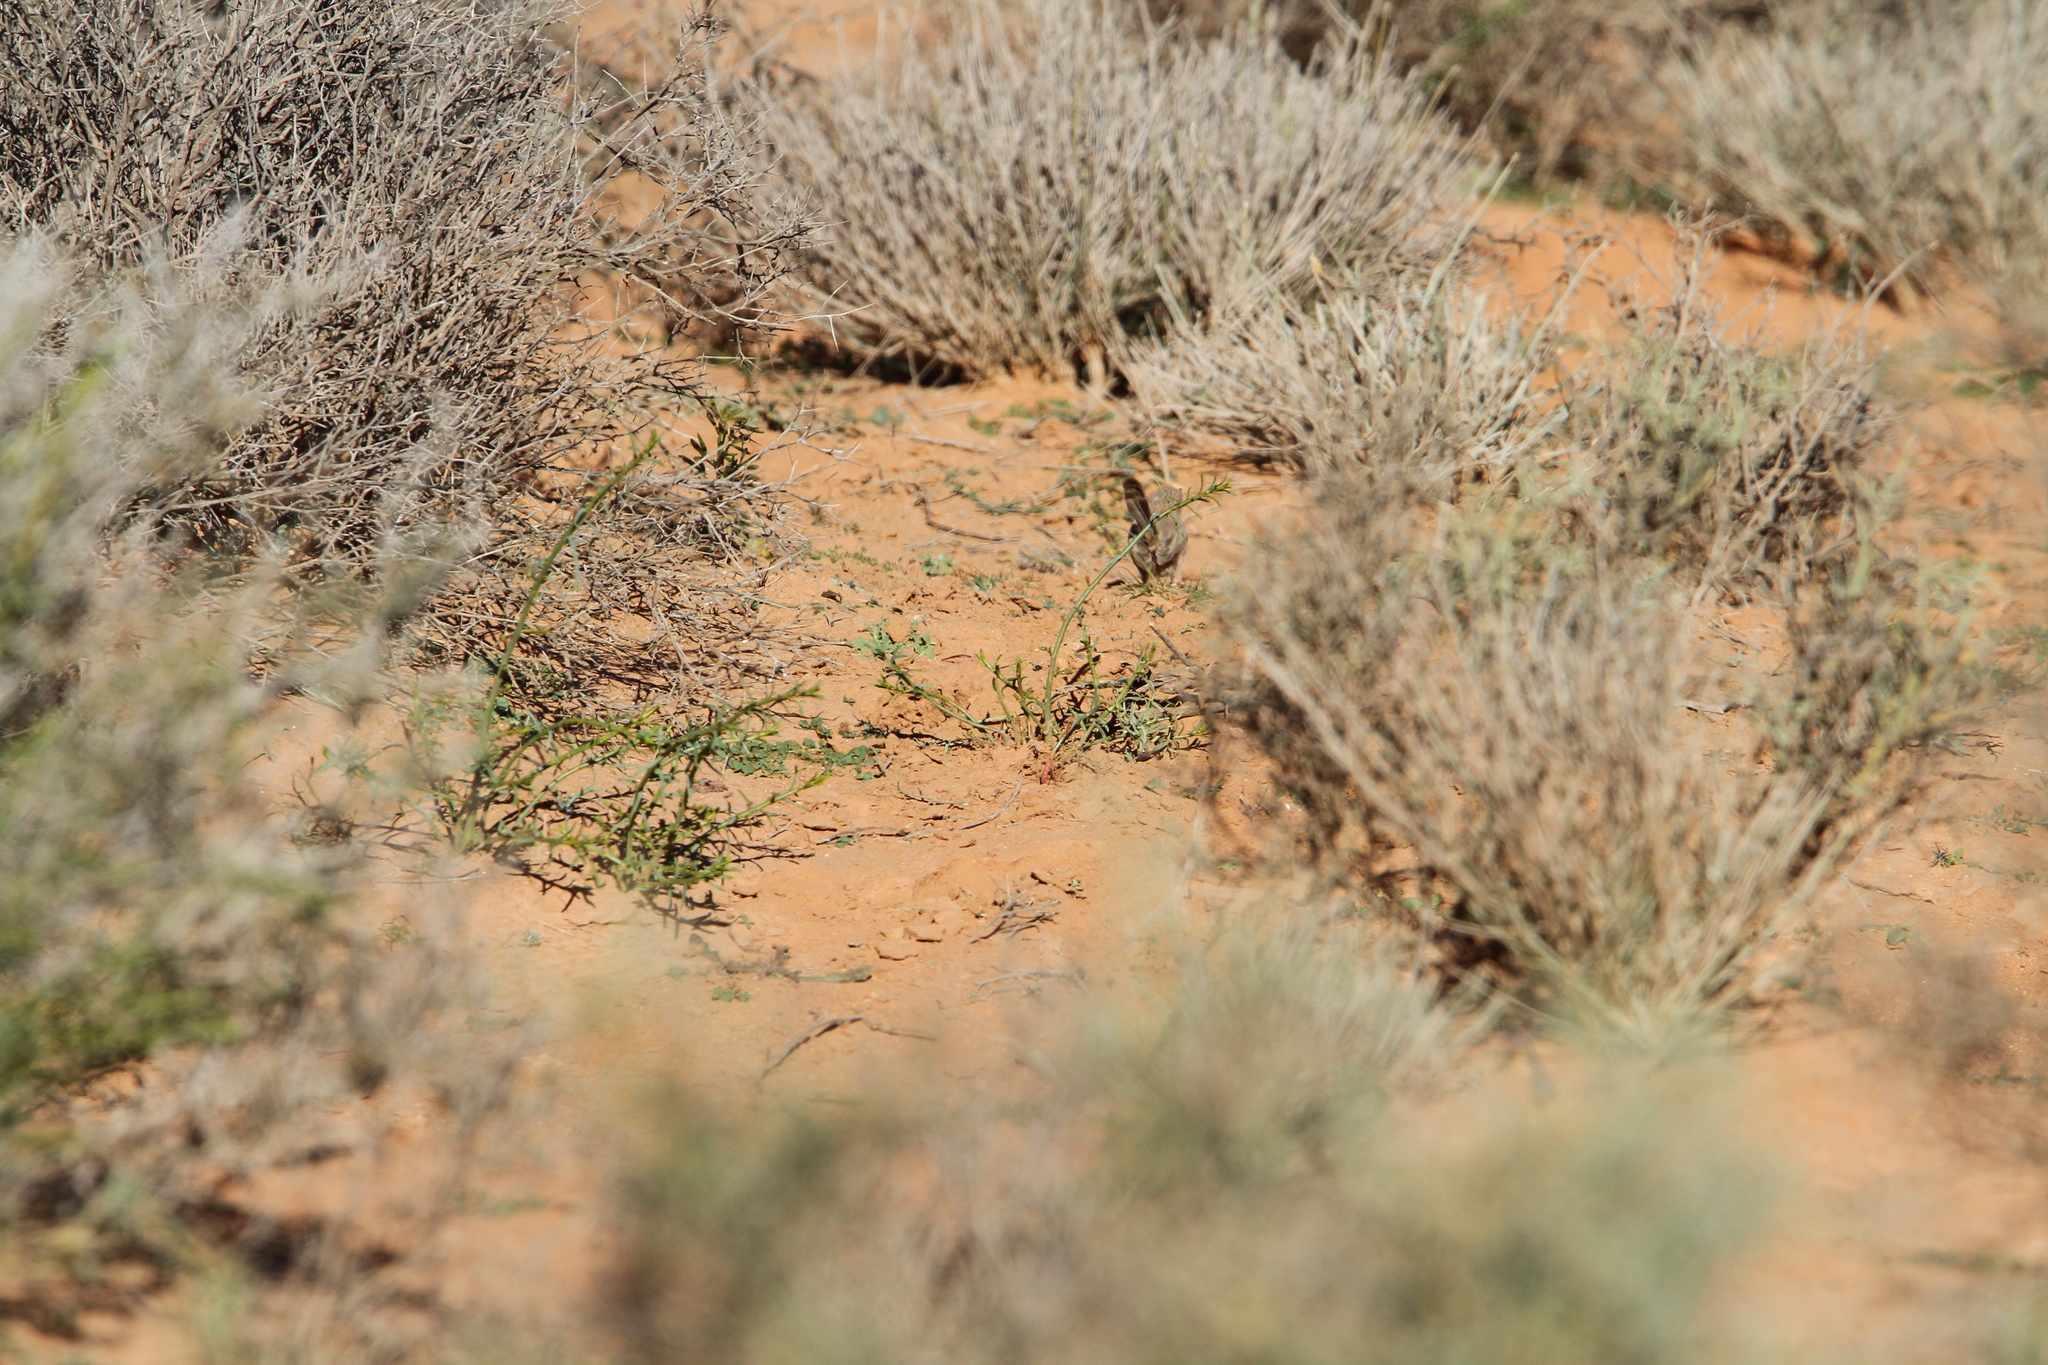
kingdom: Animalia
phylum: Chordata
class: Aves
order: Passeriformes
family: Scotocercidae
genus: Scotocerca
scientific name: Scotocerca inquieta
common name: Scrub warbler
